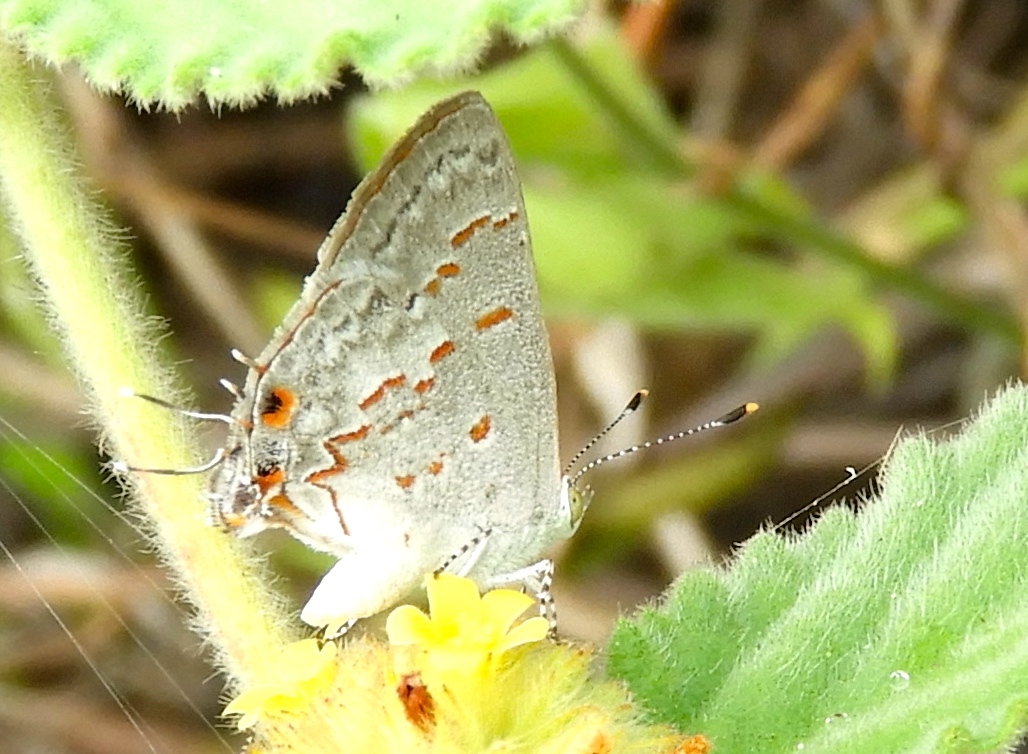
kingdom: Animalia
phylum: Arthropoda
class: Insecta
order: Lepidoptera
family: Lycaenidae
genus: Ministrymon
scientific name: Ministrymon
